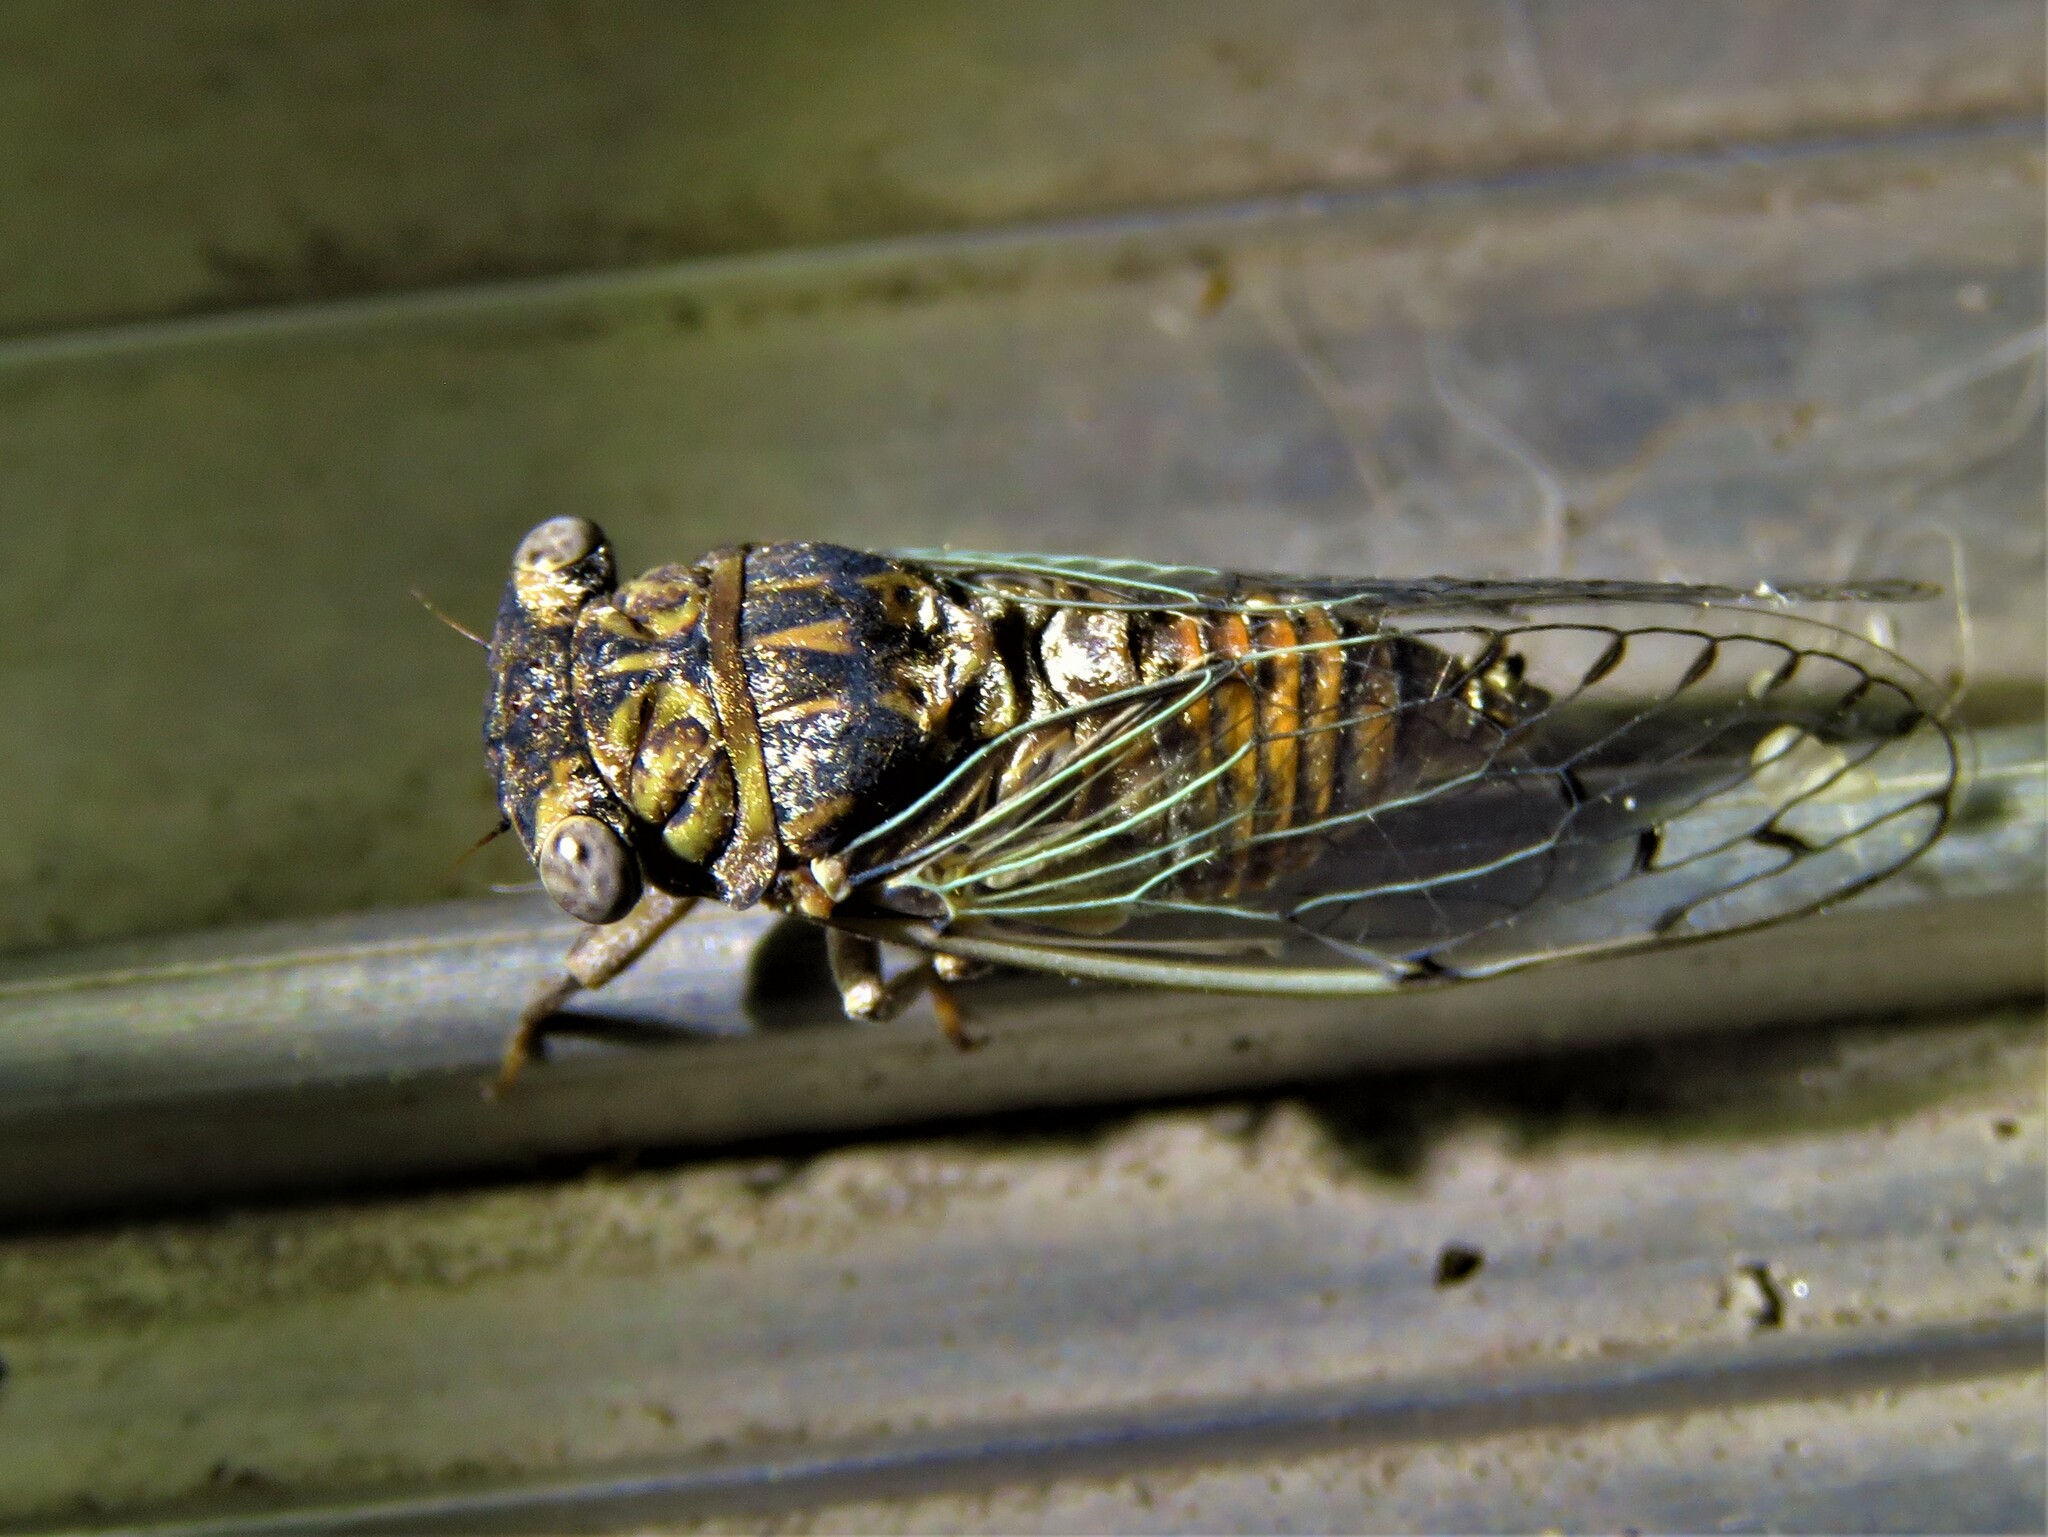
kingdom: Animalia
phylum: Arthropoda
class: Insecta
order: Hemiptera
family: Cicadidae
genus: Pacarina
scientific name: Pacarina puella
